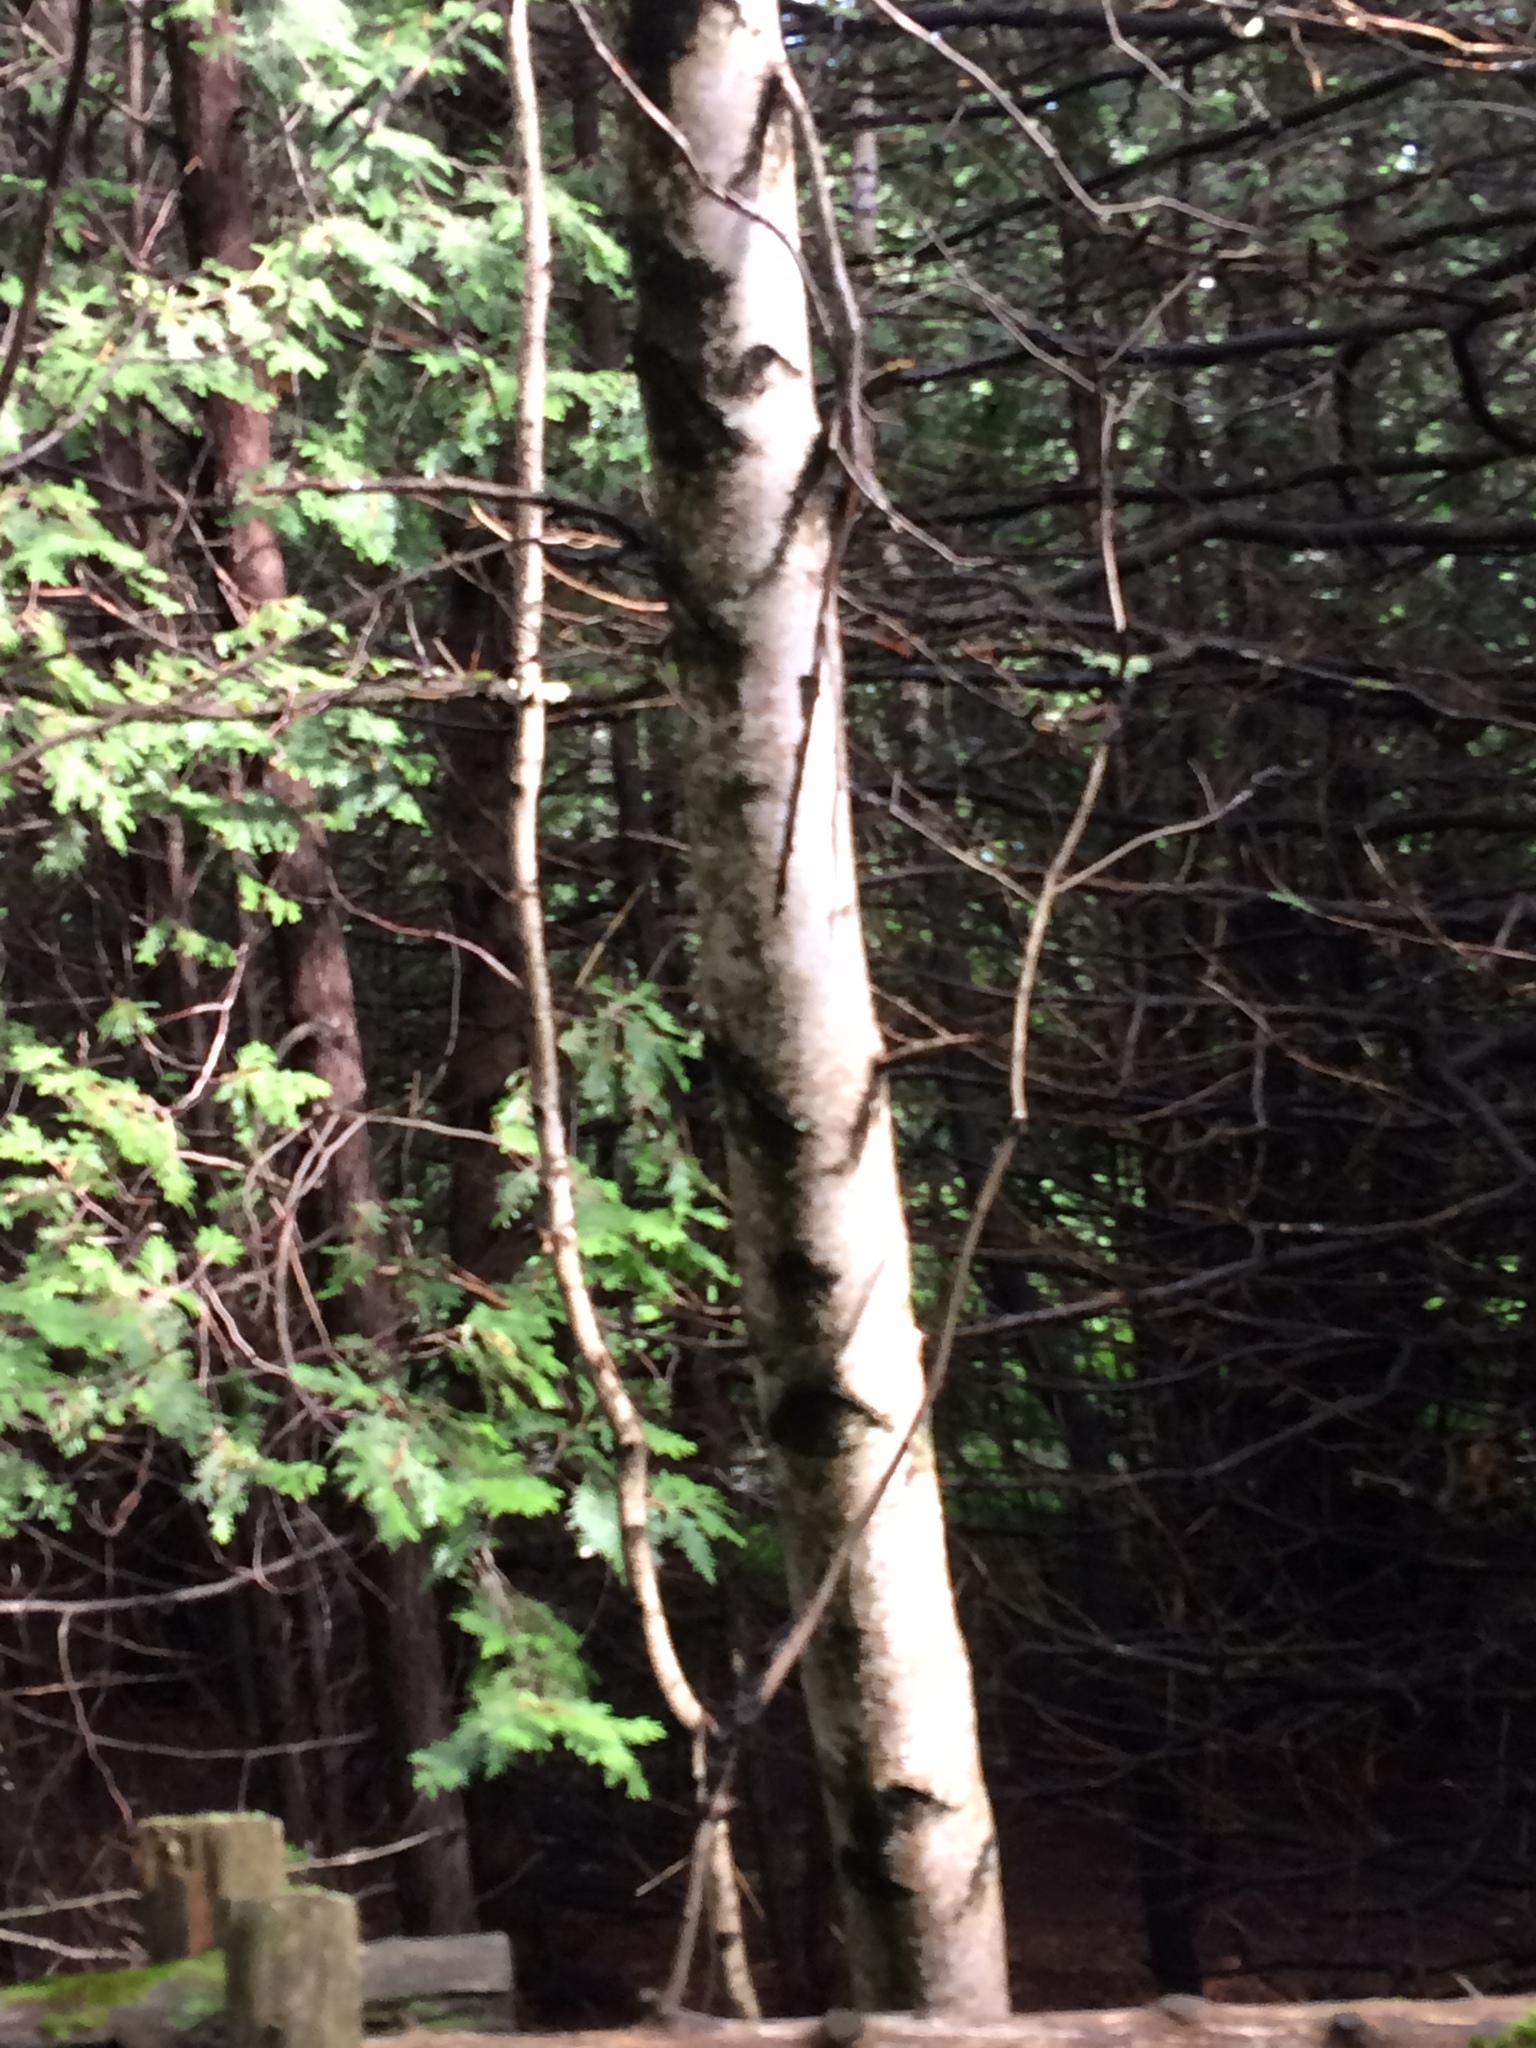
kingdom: Plantae
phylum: Tracheophyta
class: Magnoliopsida
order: Fagales
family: Betulaceae
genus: Betula
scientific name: Betula populifolia
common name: Fire birch
